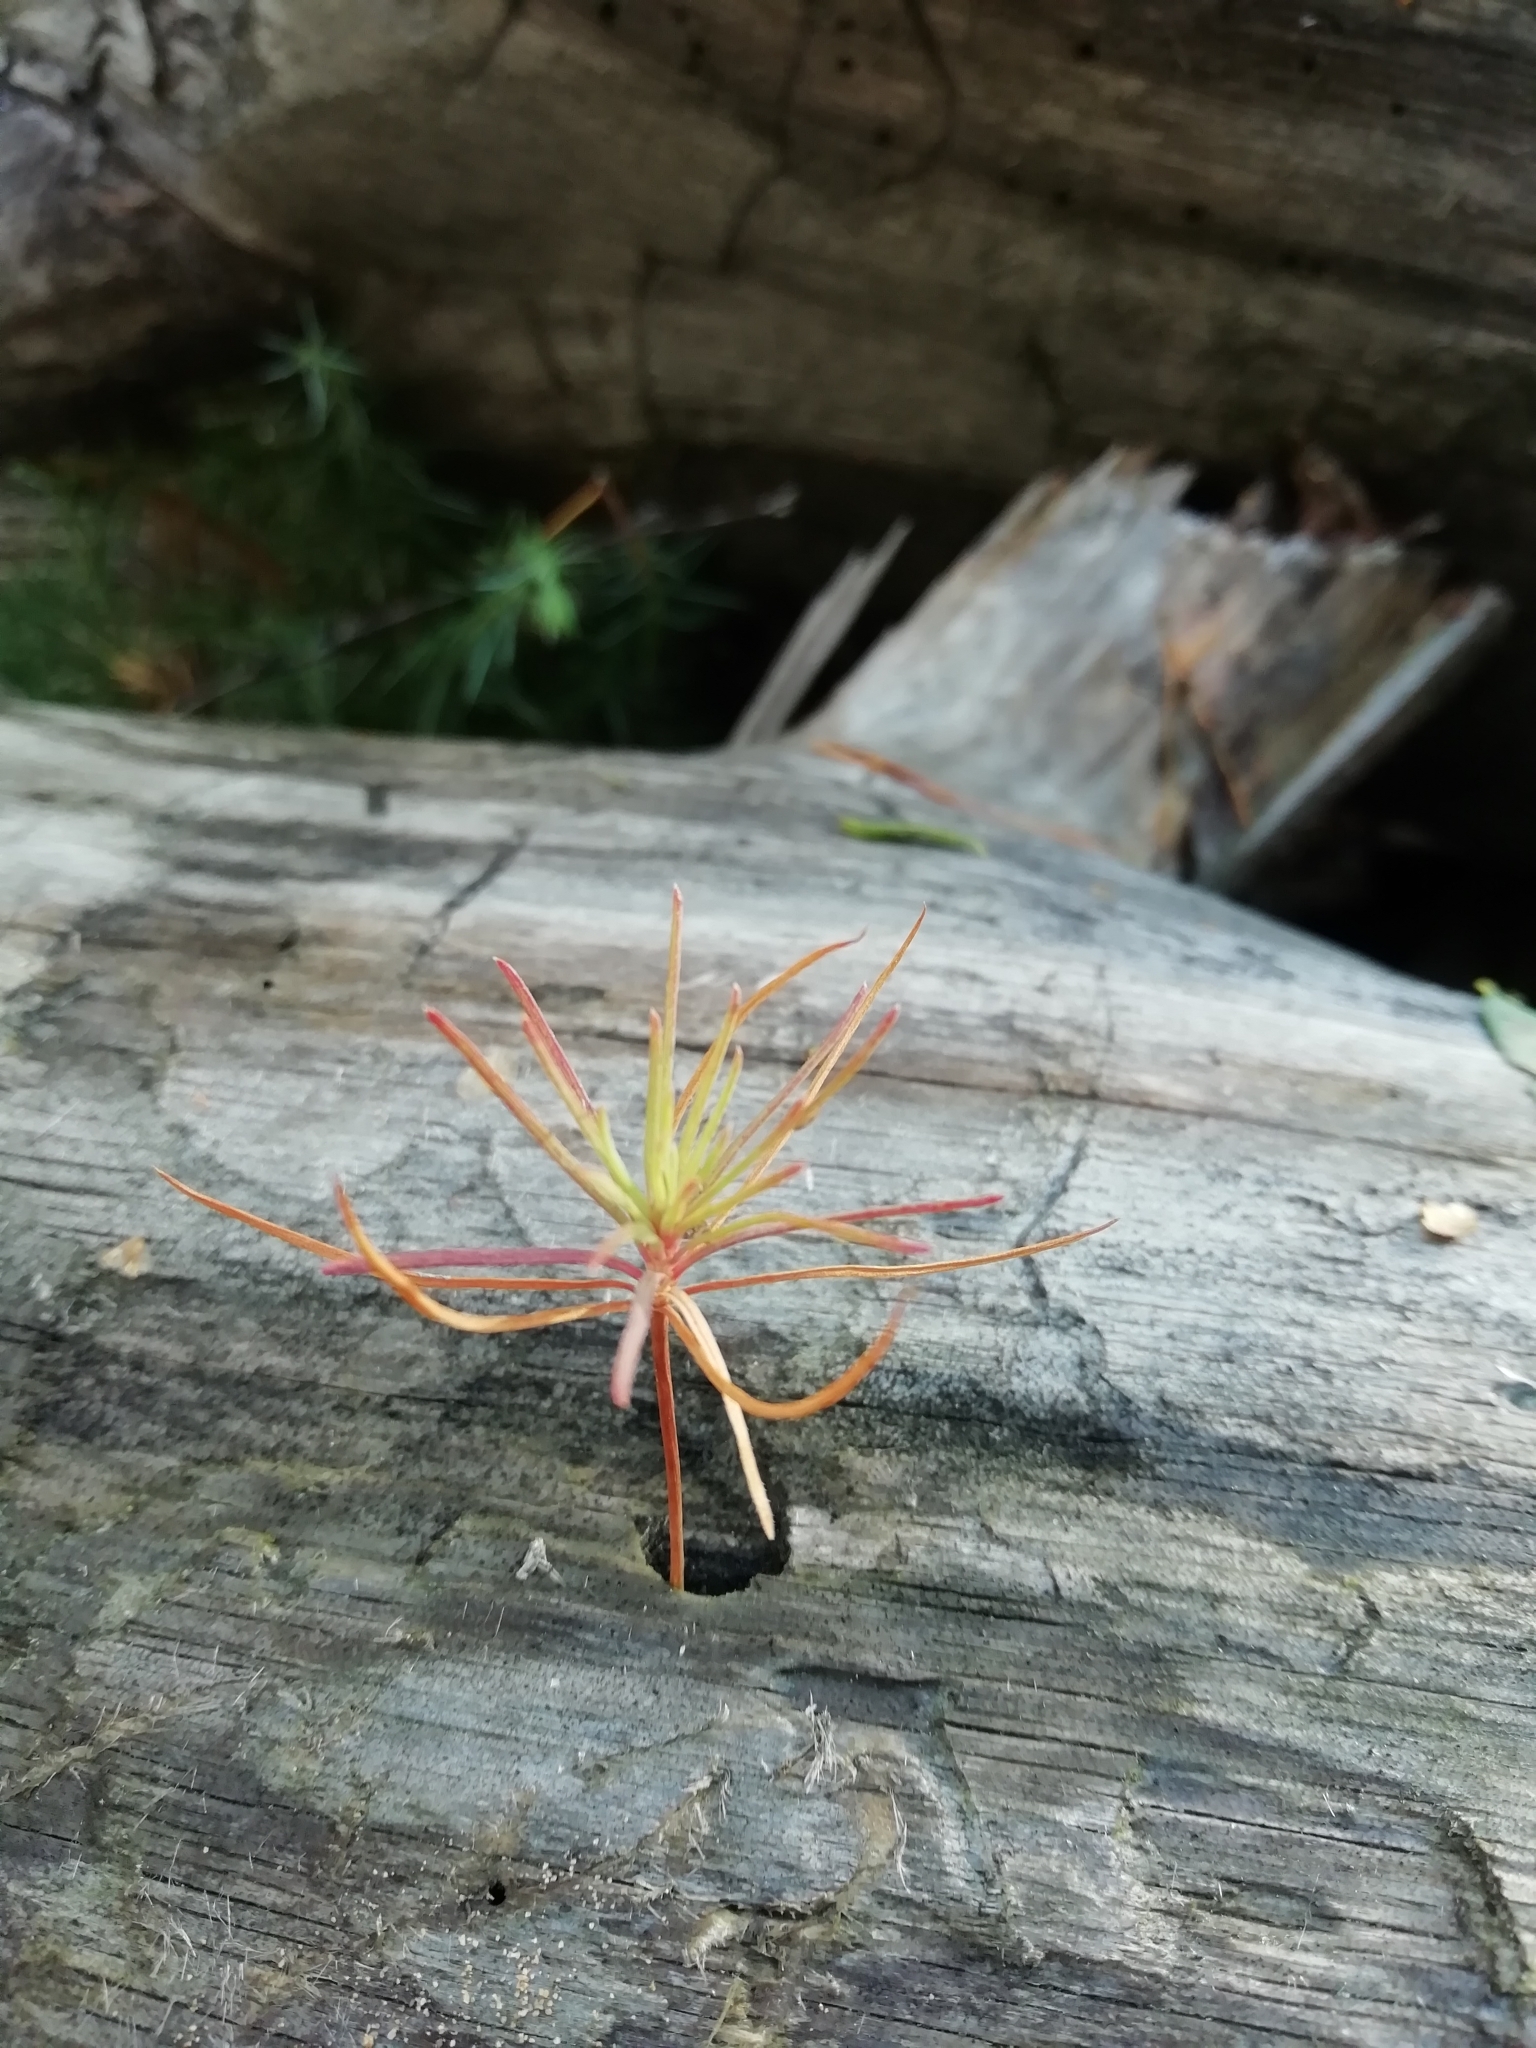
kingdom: Plantae
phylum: Tracheophyta
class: Pinopsida
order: Pinales
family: Pinaceae
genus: Pinus
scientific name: Pinus sylvestris
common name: Scots pine
